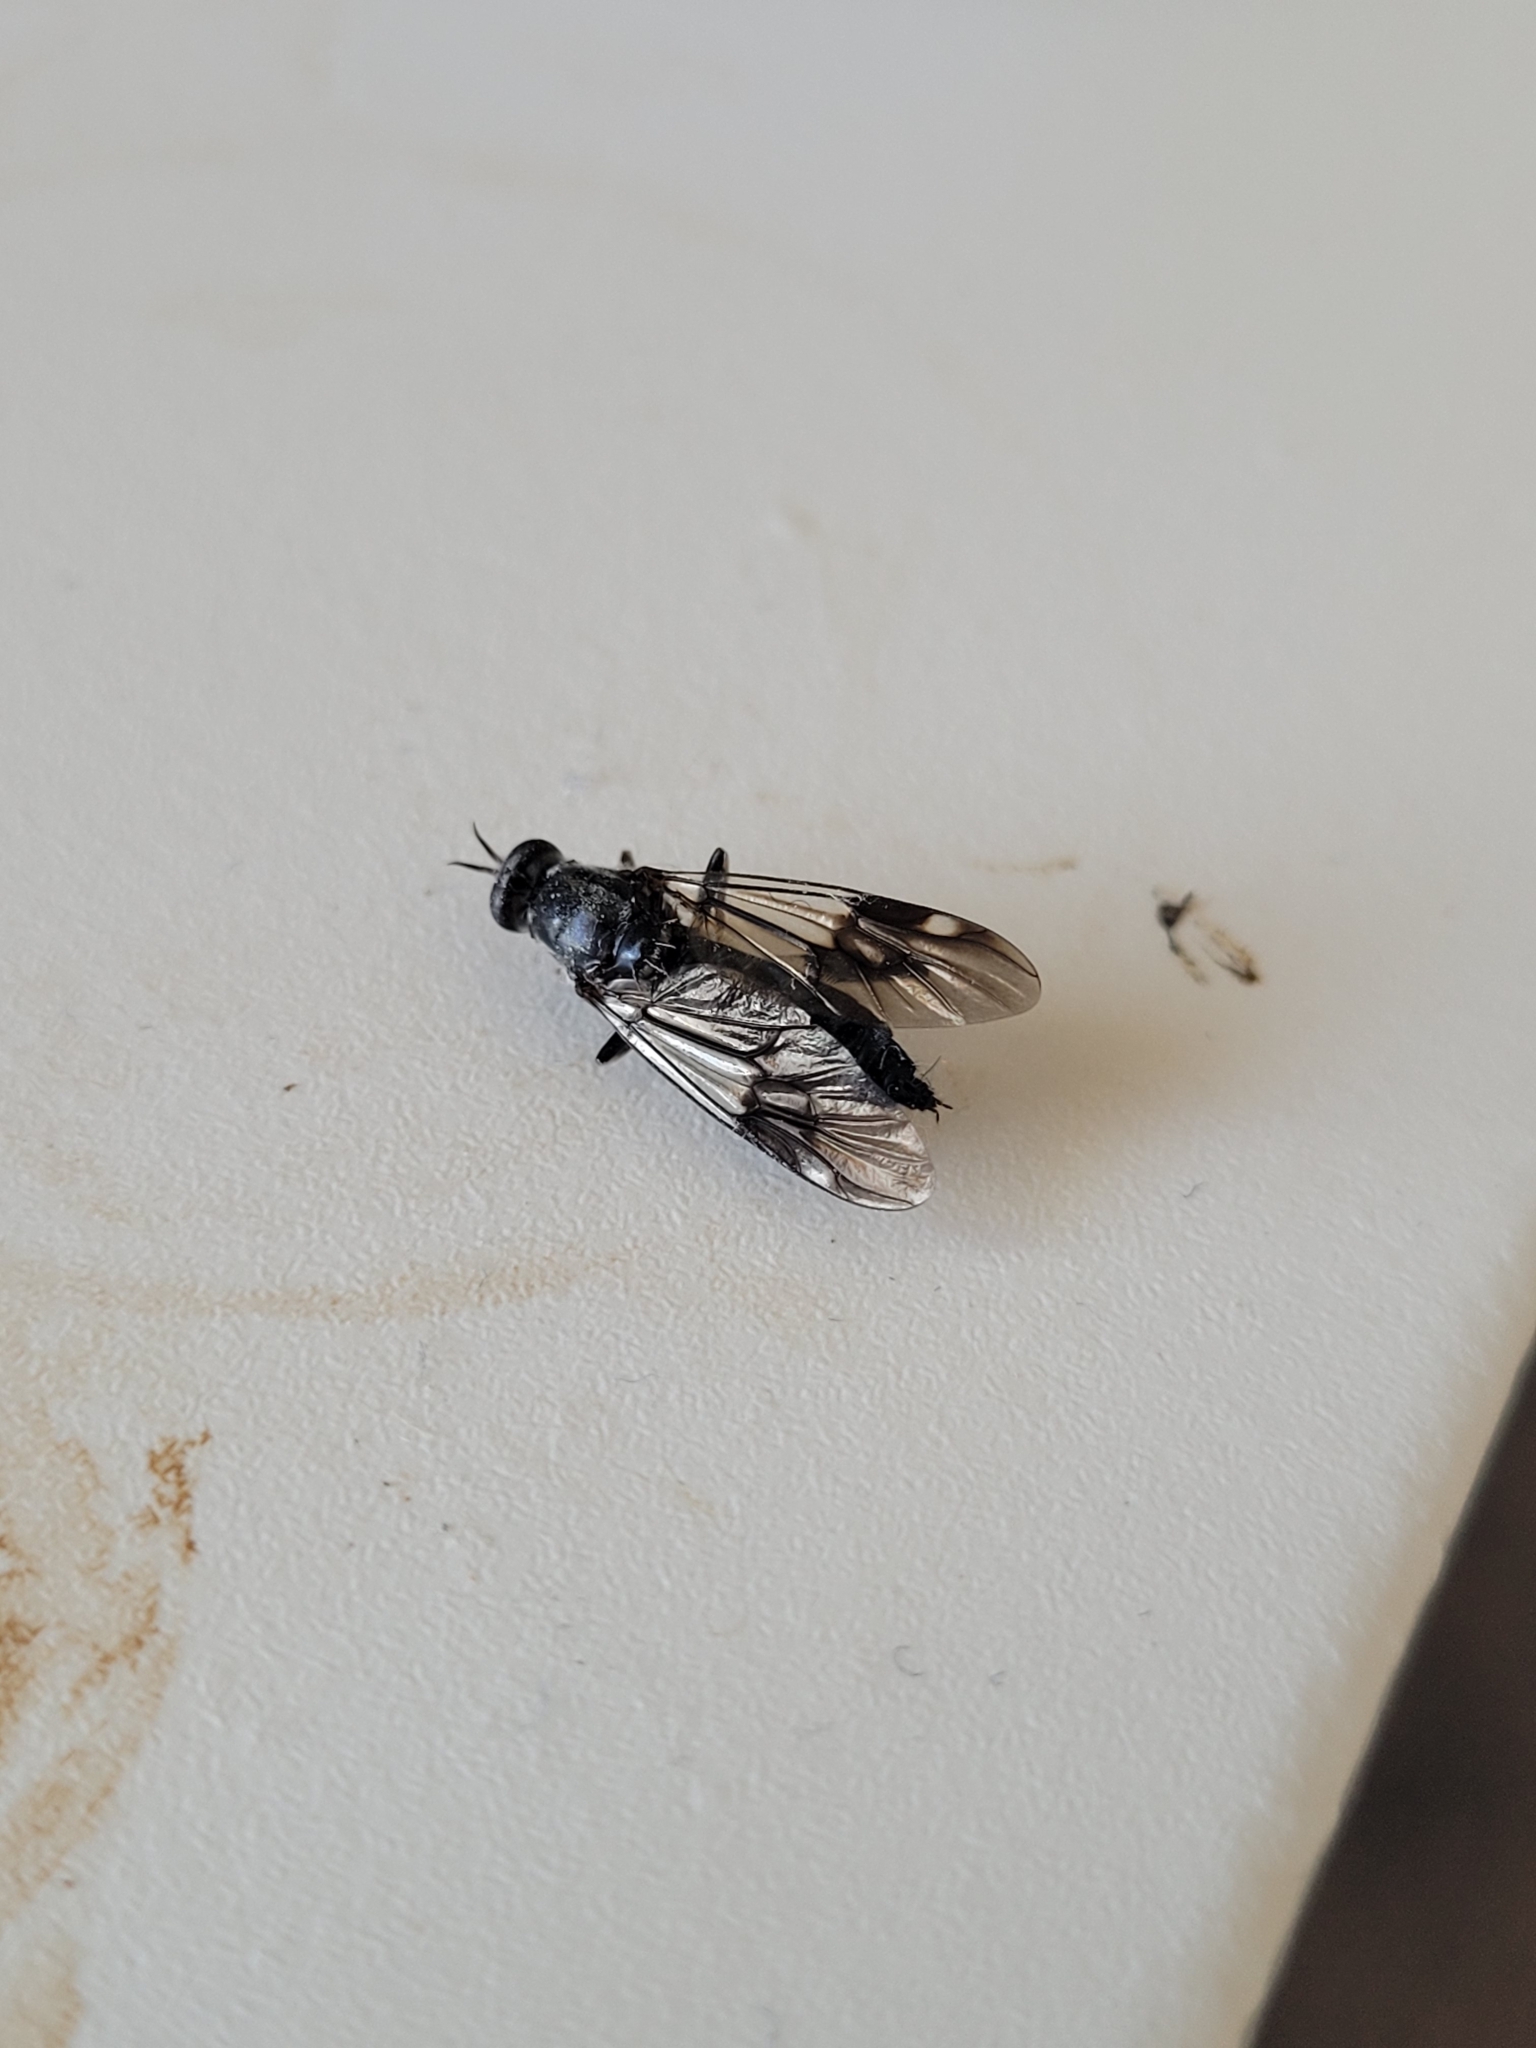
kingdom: Animalia
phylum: Arthropoda
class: Insecta
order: Diptera
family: Stratiomyidae
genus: Exaireta
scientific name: Exaireta spinigera
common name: Blue soldier fly
